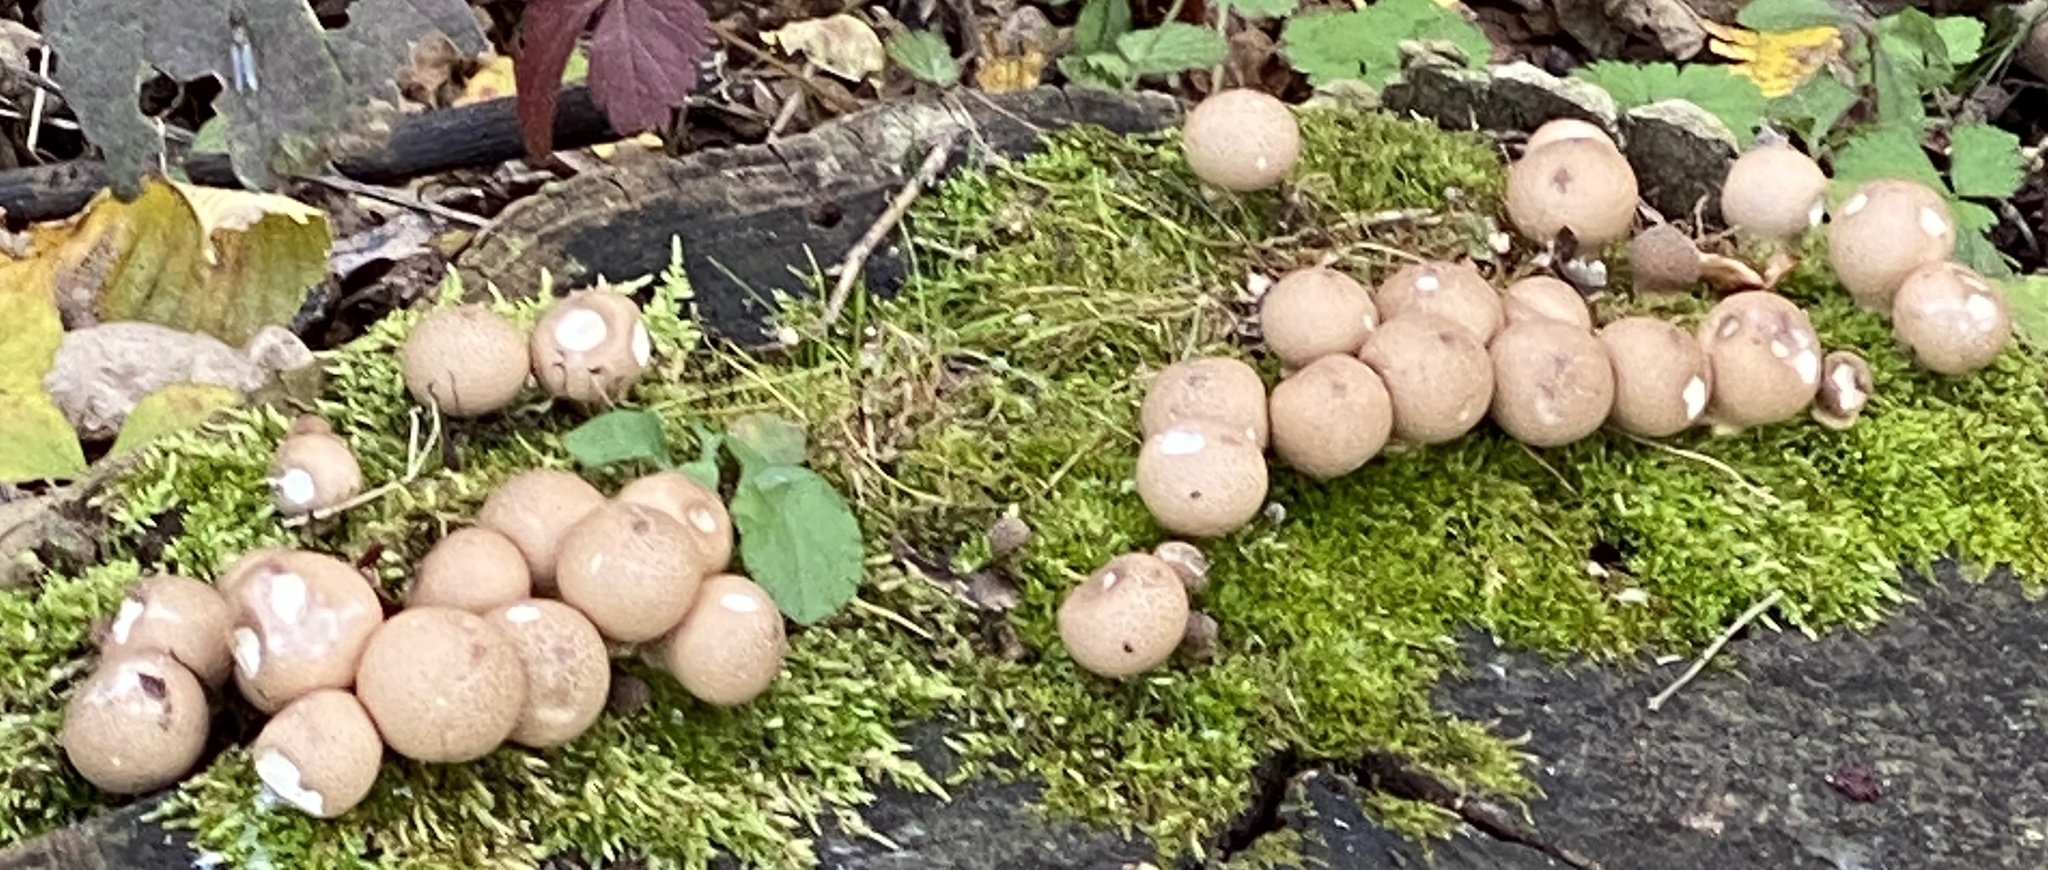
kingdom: Fungi
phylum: Basidiomycota
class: Agaricomycetes
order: Agaricales
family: Lycoperdaceae
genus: Apioperdon
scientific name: Apioperdon pyriforme
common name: Pear-shaped puffball
